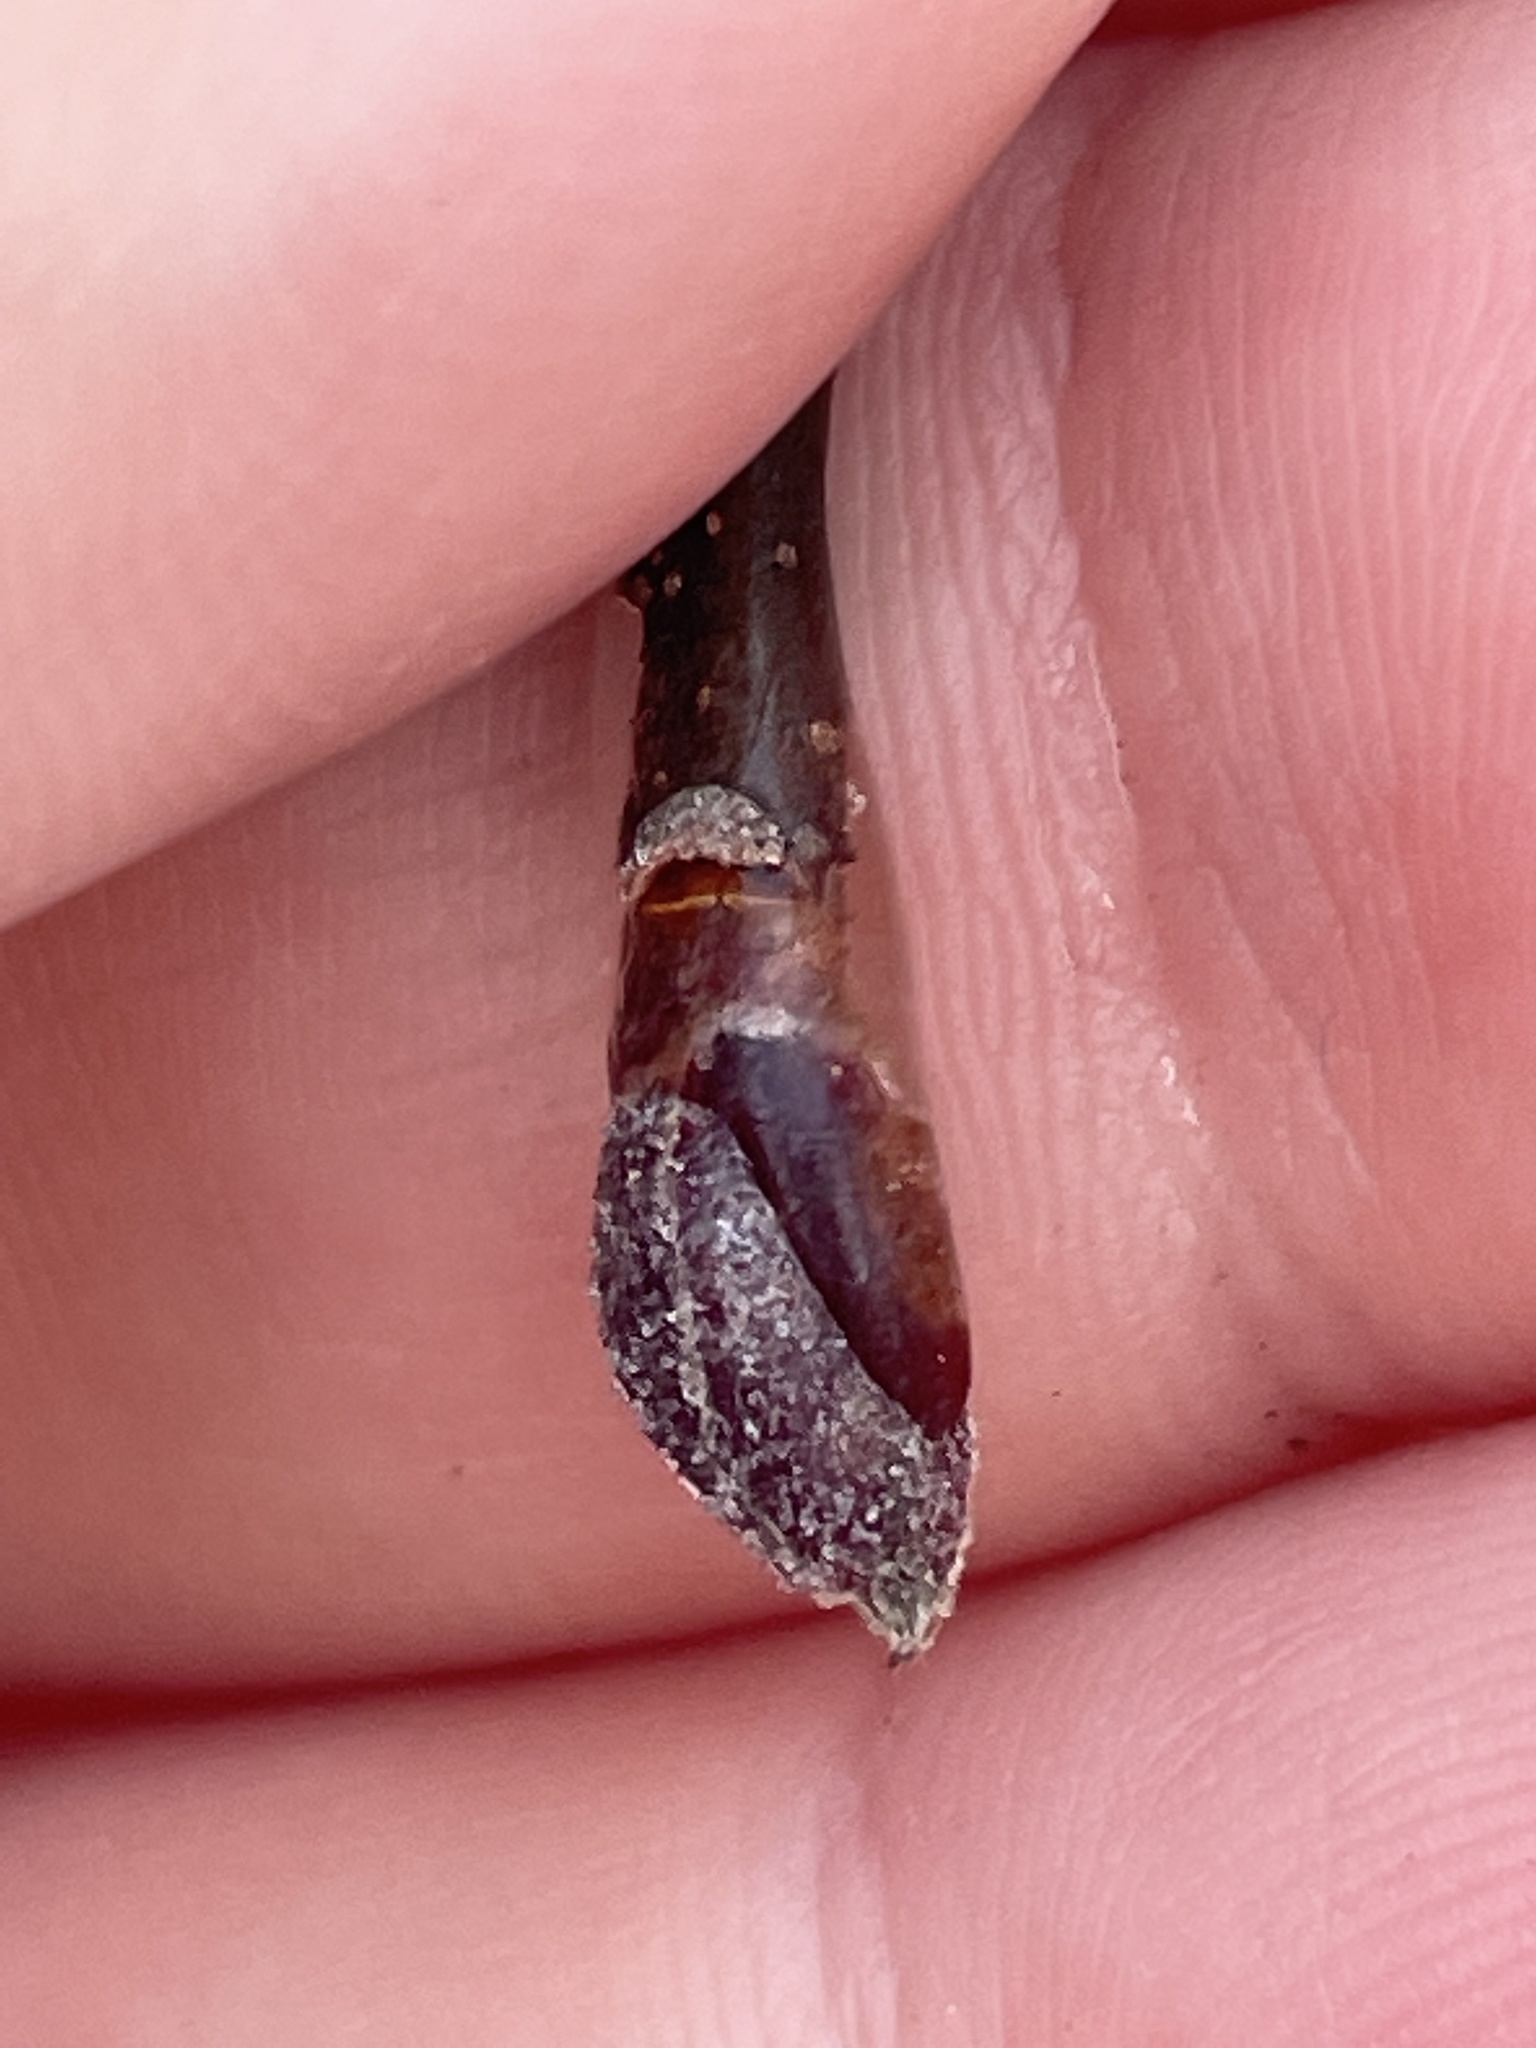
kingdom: Plantae
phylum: Tracheophyta
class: Magnoliopsida
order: Fagales
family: Betulaceae
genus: Alnus
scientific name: Alnus incana
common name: Grey alder
